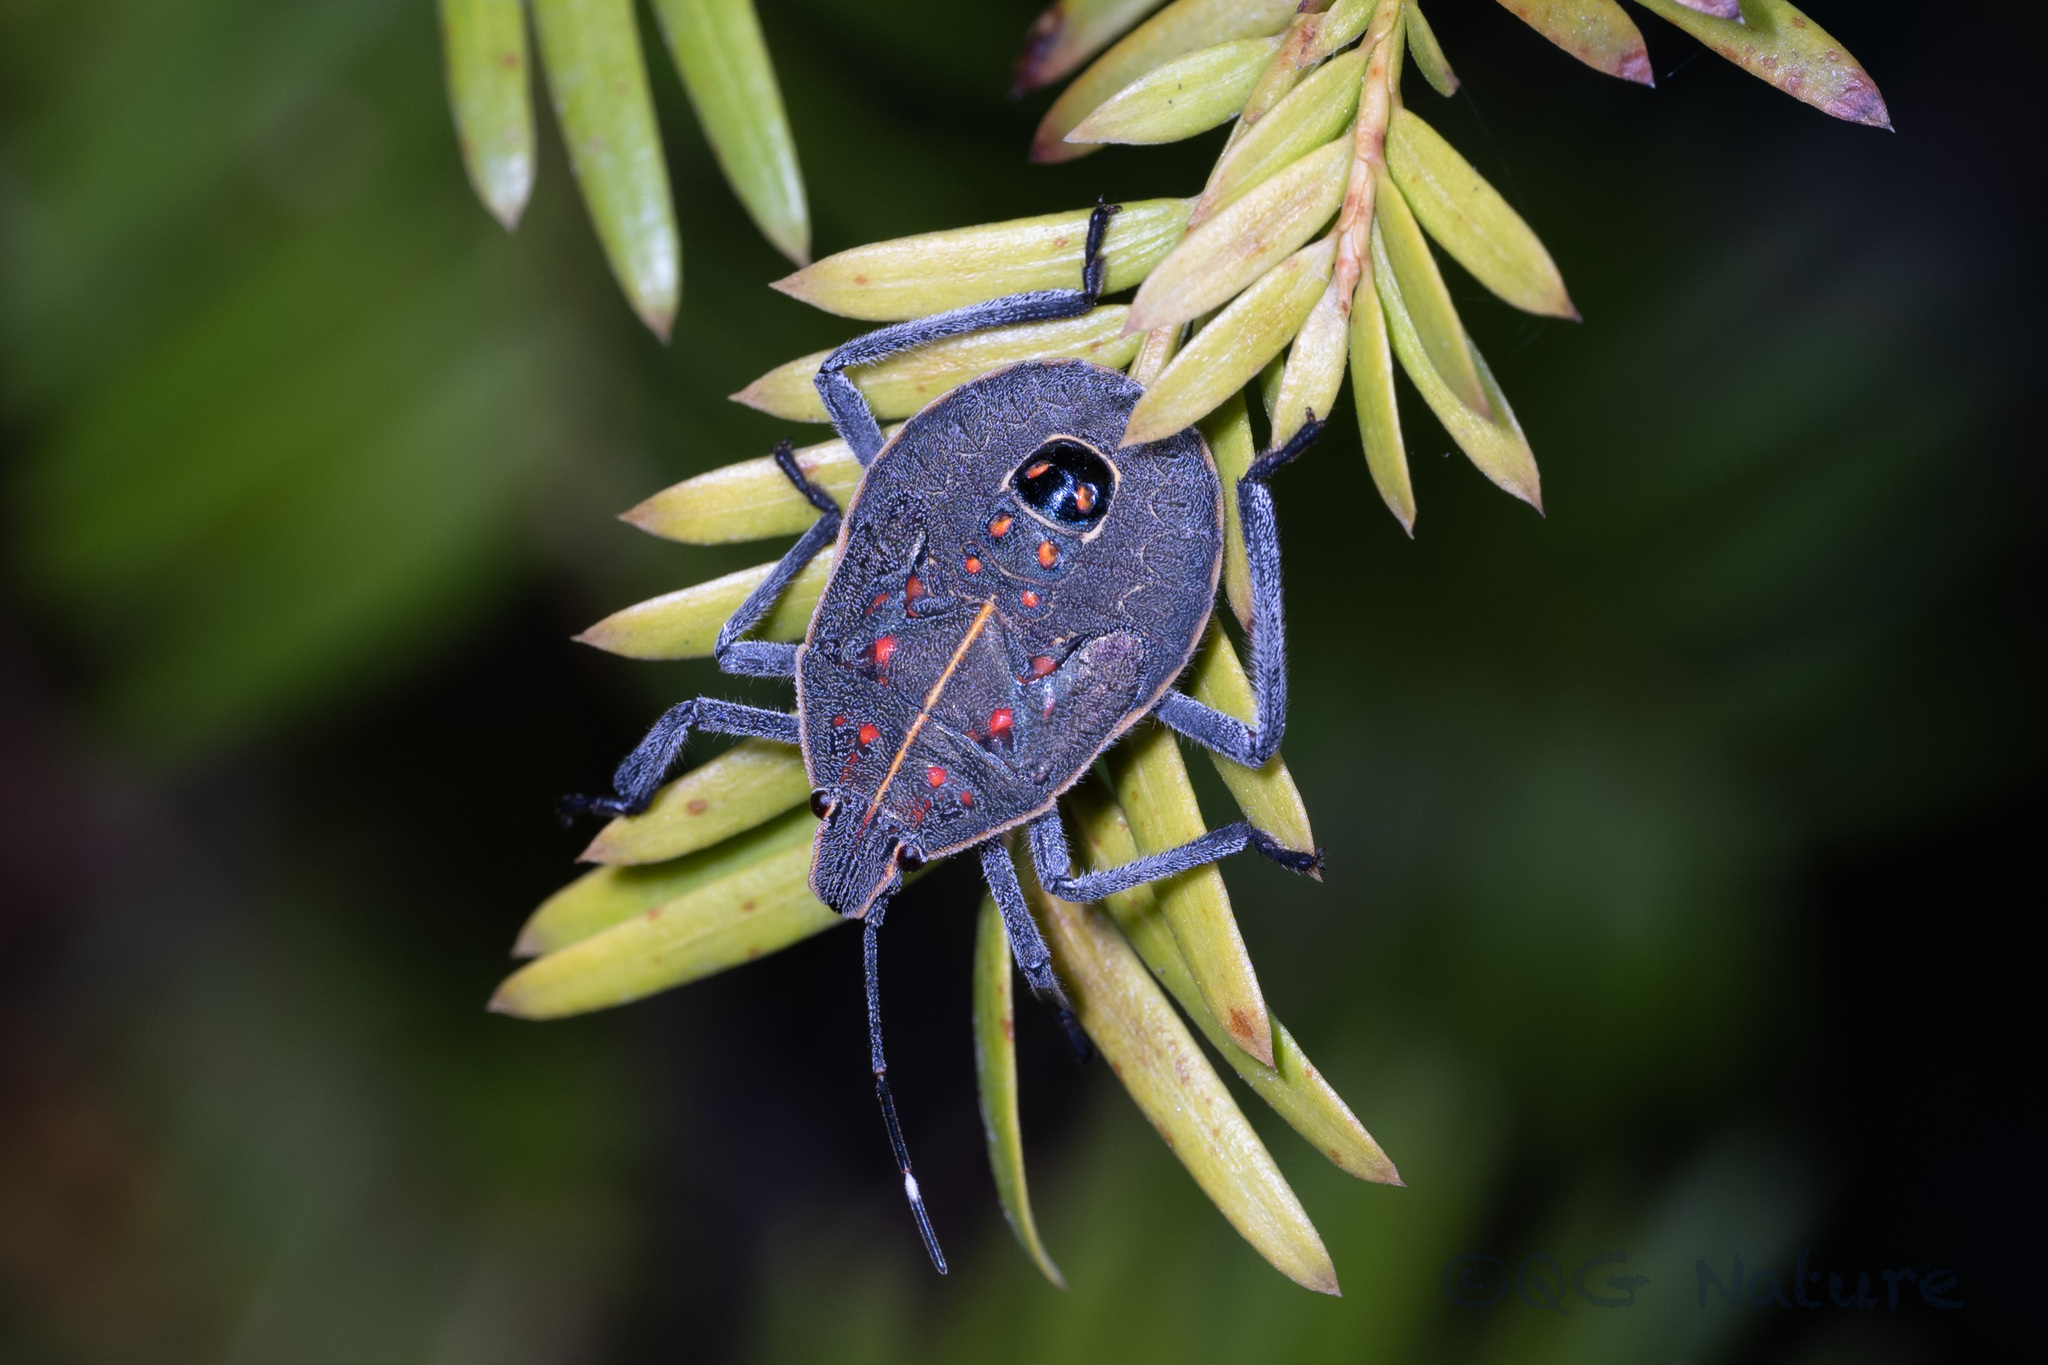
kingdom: Animalia
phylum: Arthropoda
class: Insecta
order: Hemiptera
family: Pentatomidae
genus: Erthesina
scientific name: Erthesina fullo
